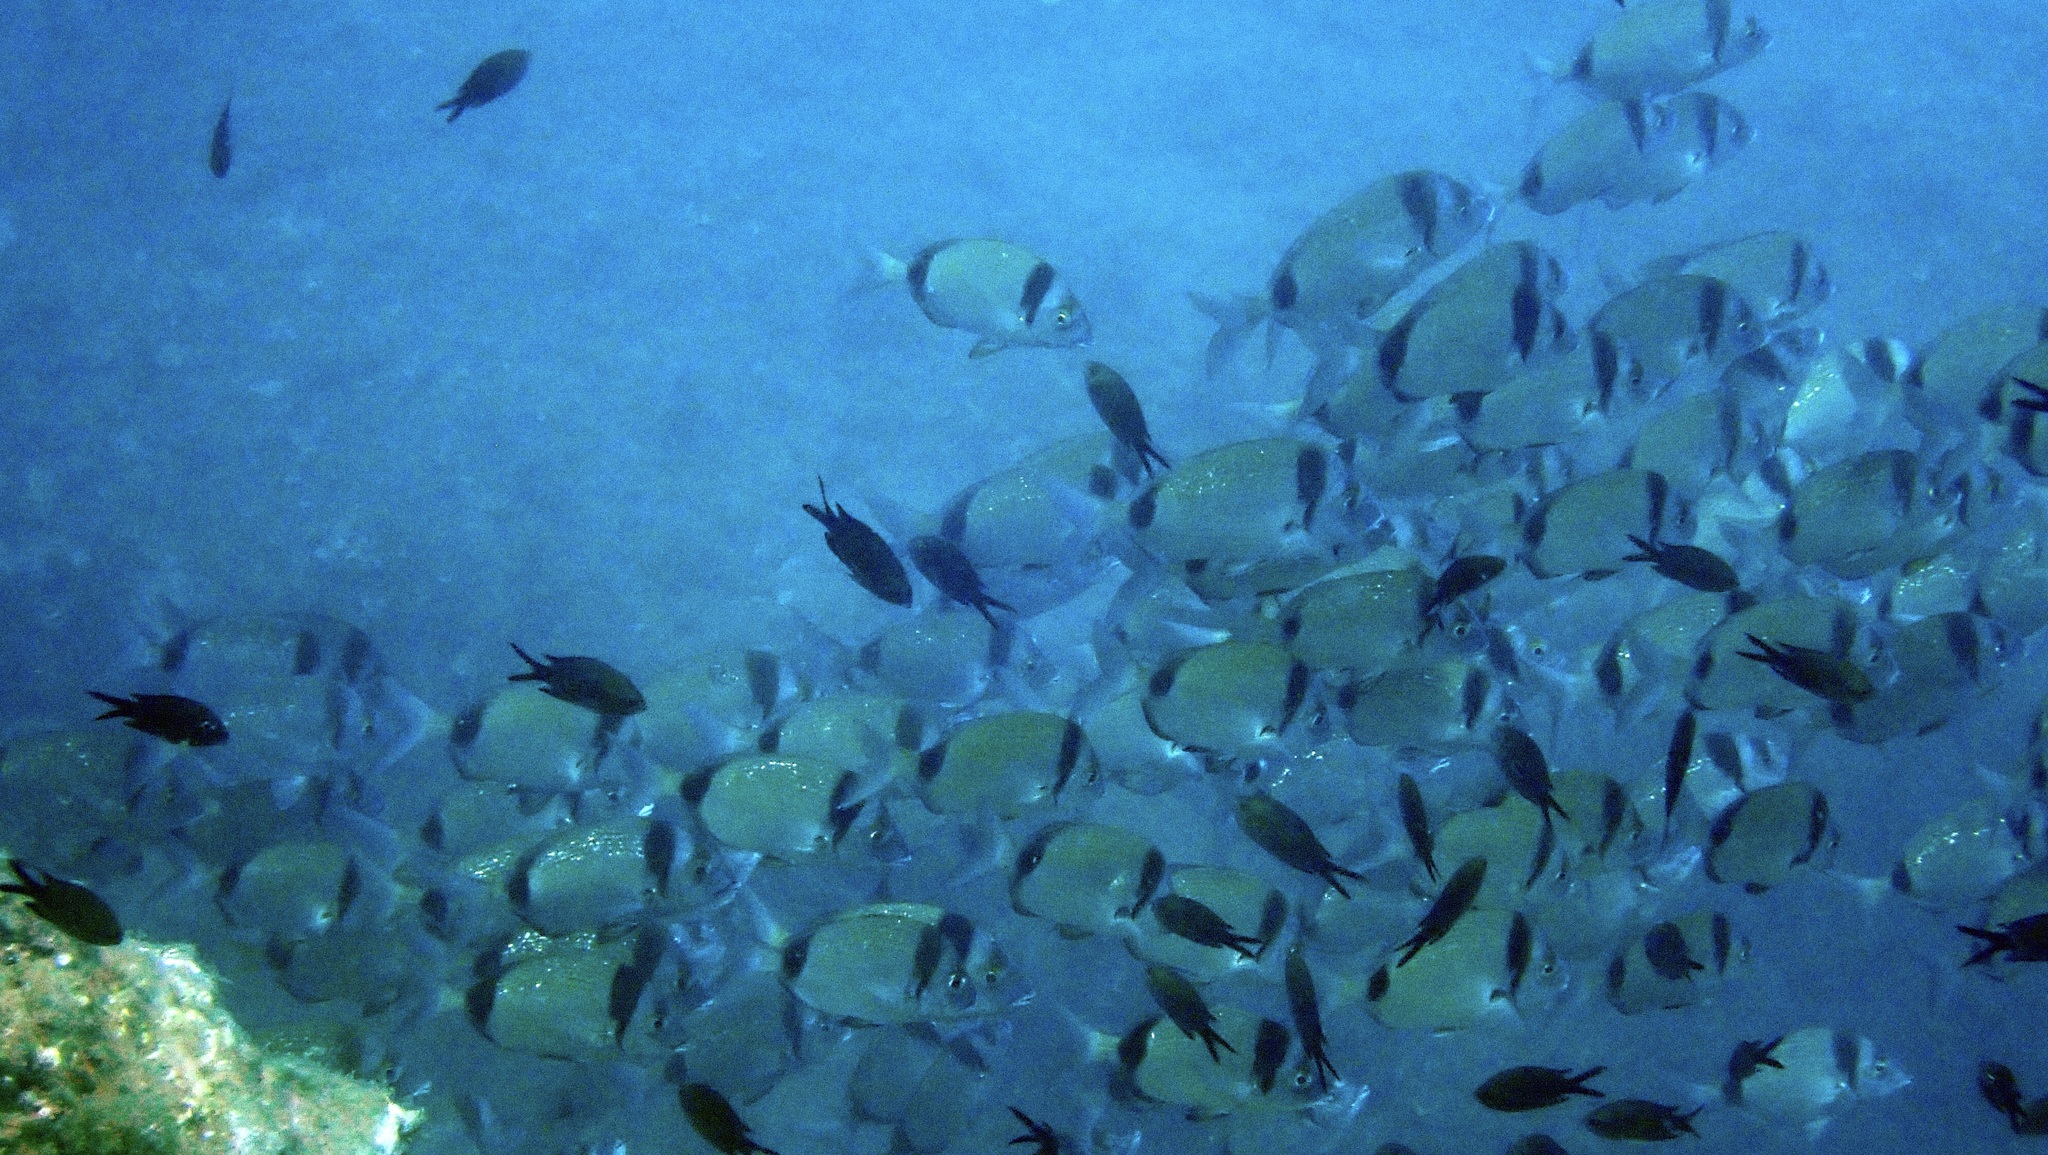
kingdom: Animalia
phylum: Chordata
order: Perciformes
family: Sparidae
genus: Diplodus
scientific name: Diplodus vulgaris
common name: Common two-banded seabream
